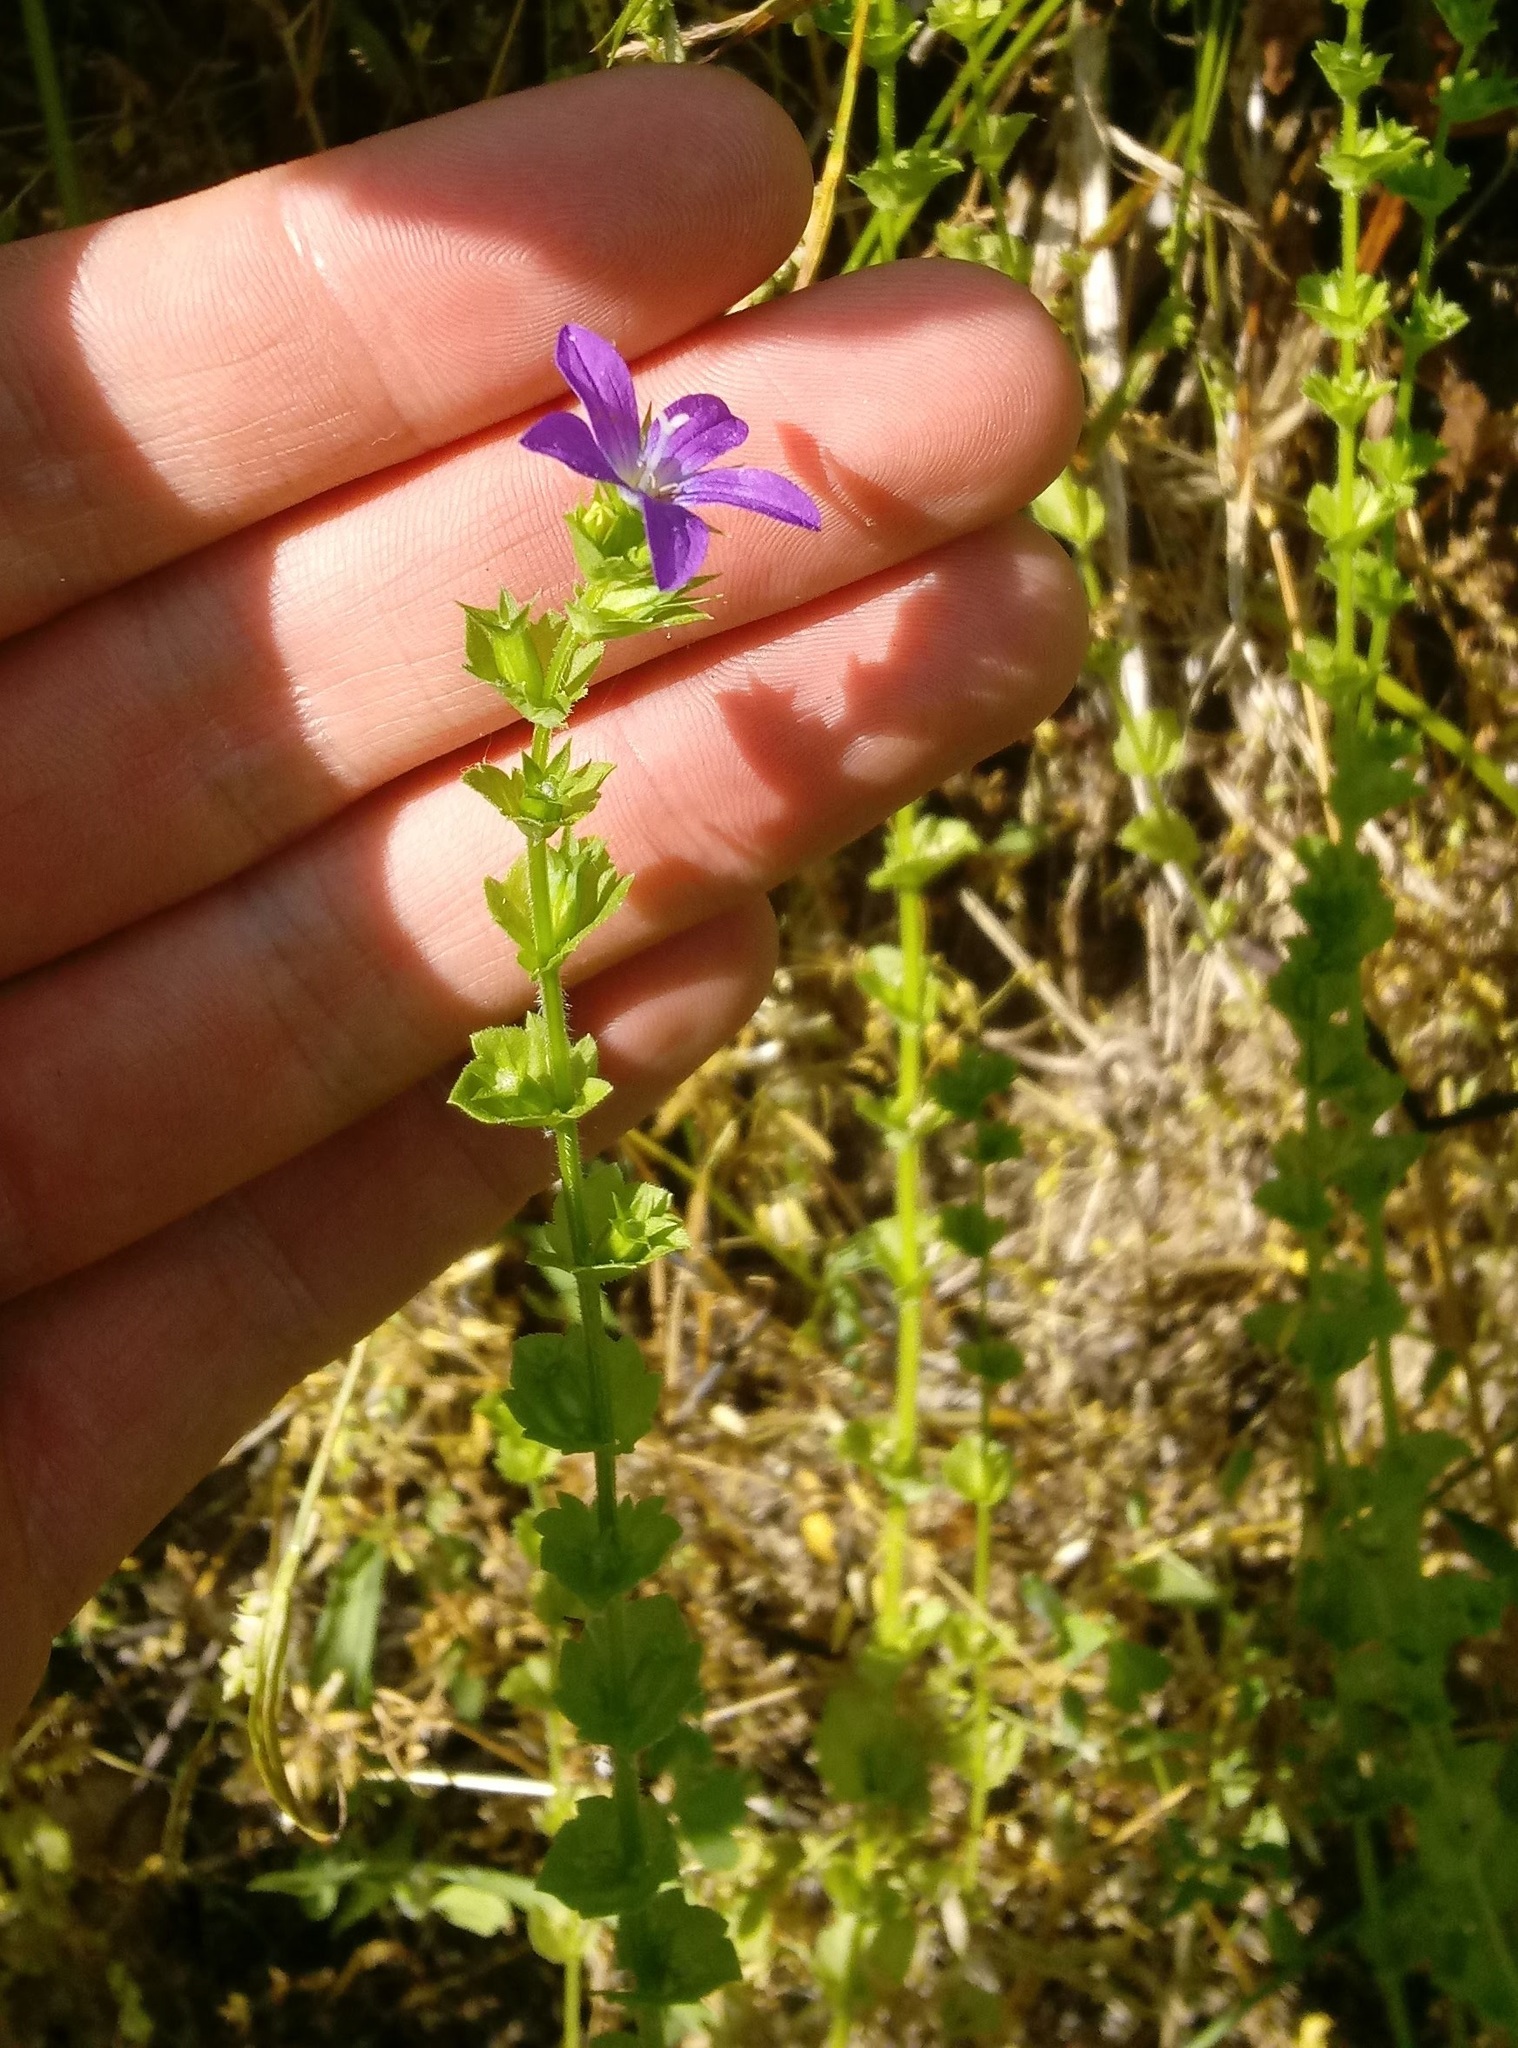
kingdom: Plantae
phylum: Tracheophyta
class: Magnoliopsida
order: Asterales
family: Campanulaceae
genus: Triodanis
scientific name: Triodanis perfoliata
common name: Clasping venus' looking-glass
